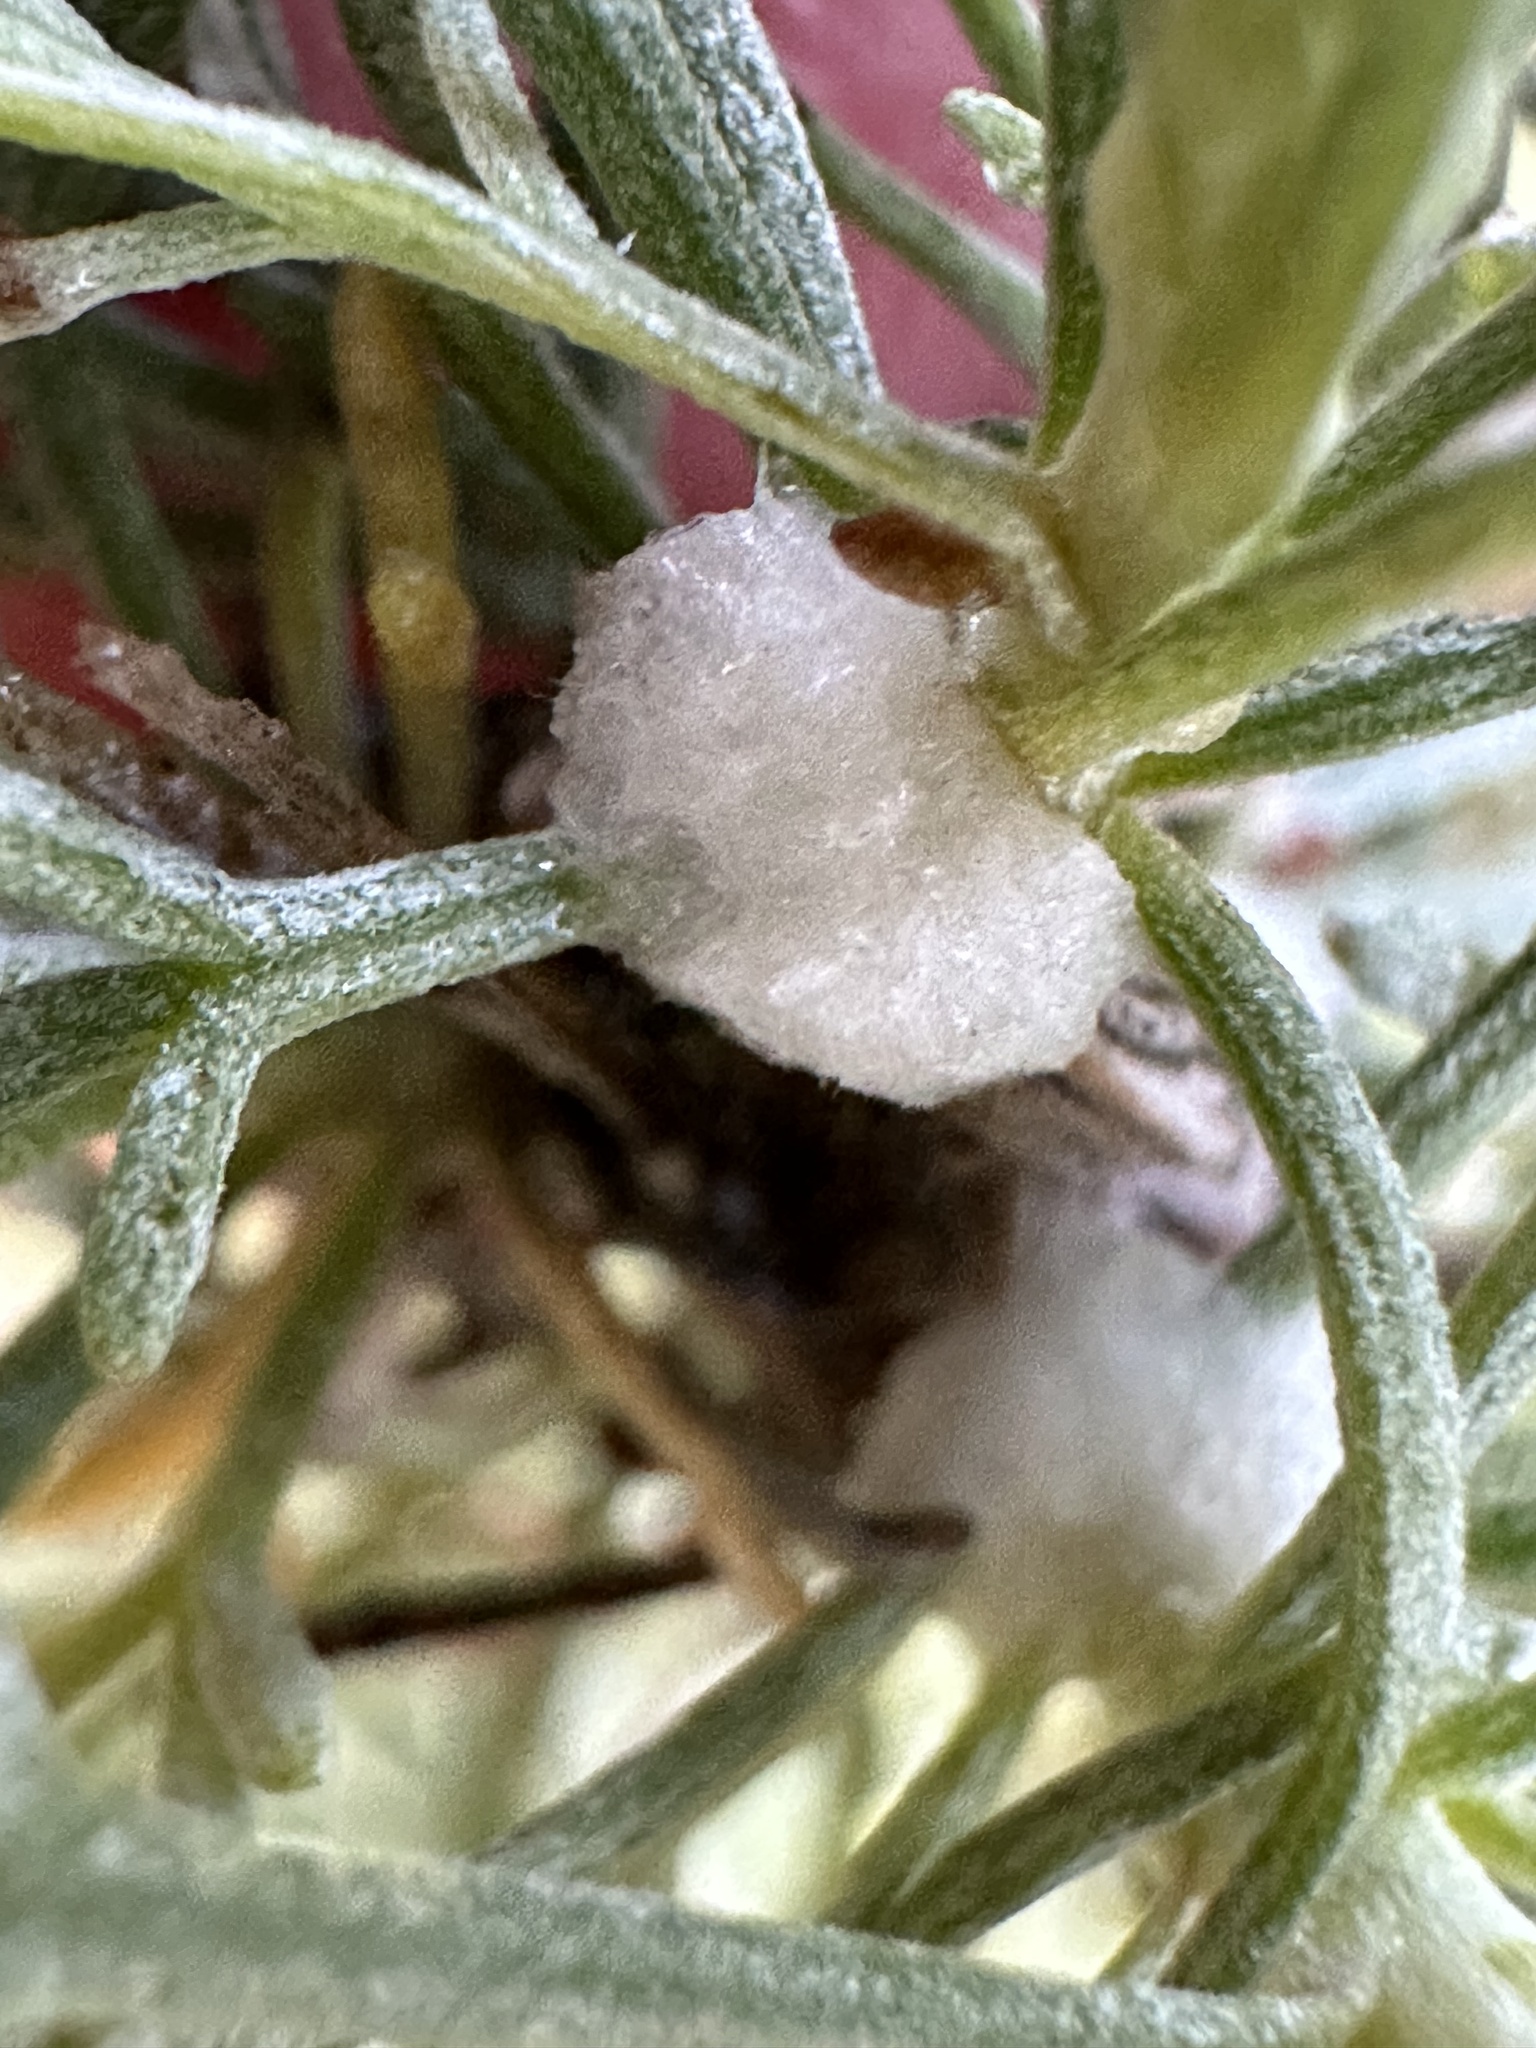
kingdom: Animalia
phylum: Arthropoda
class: Insecta
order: Diptera
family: Cecidomyiidae
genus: Rhopalomyia
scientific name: Rhopalomyia floccosa
